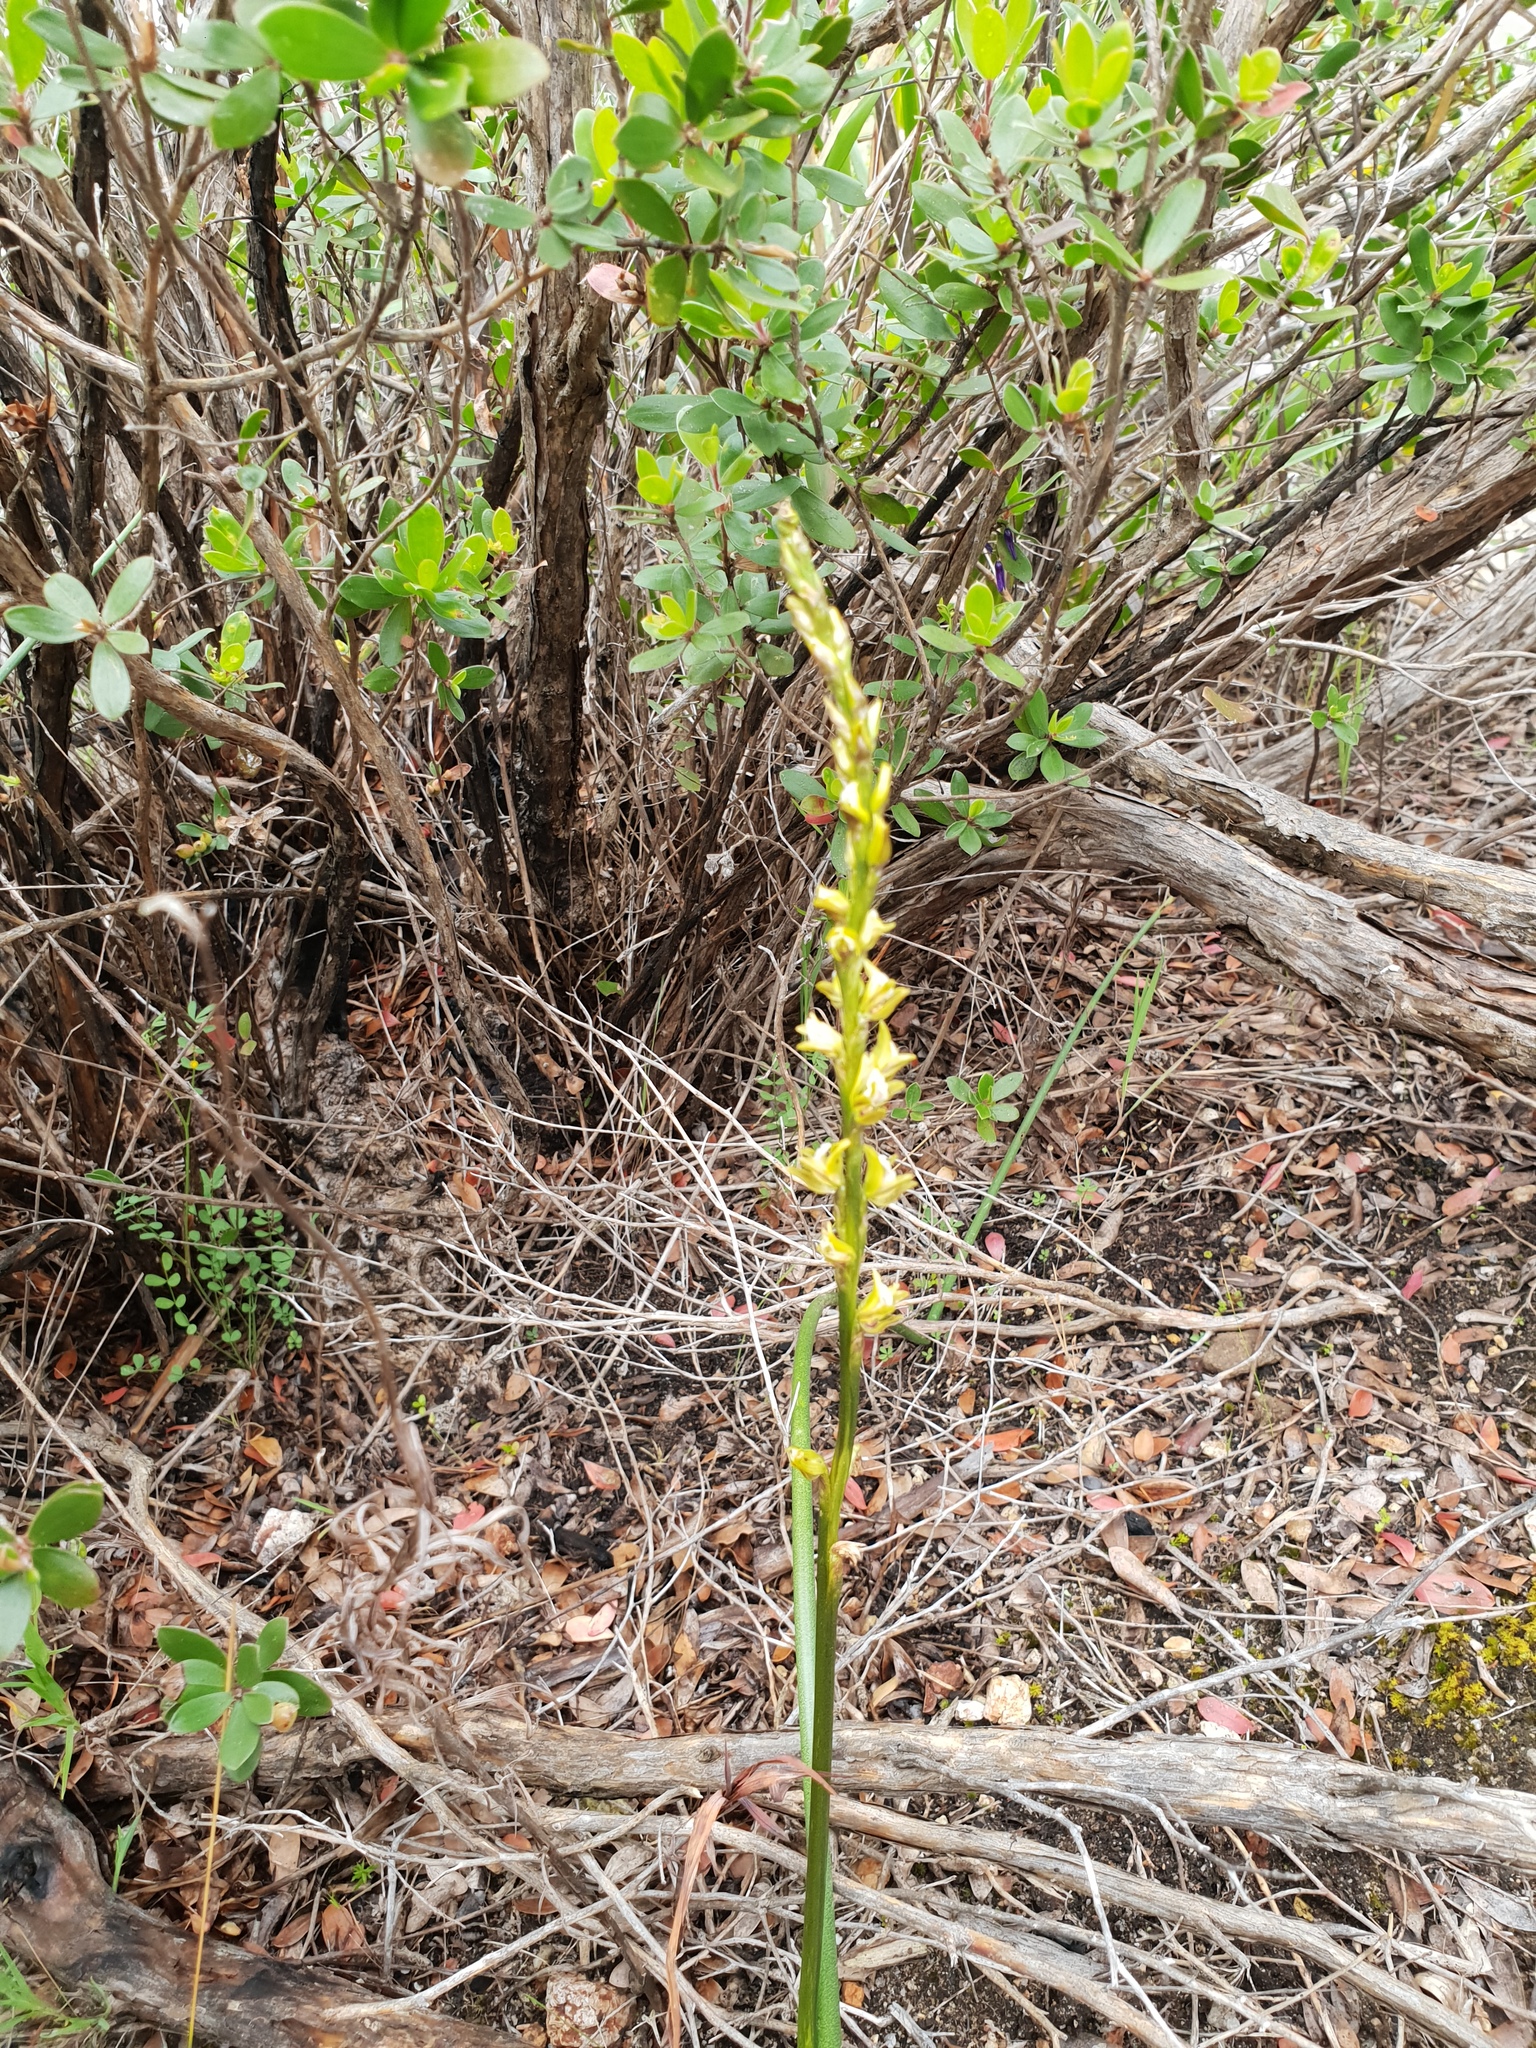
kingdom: Plantae
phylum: Tracheophyta
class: Liliopsida
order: Asparagales
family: Orchidaceae
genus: Prasophyllum
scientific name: Prasophyllum elatum
